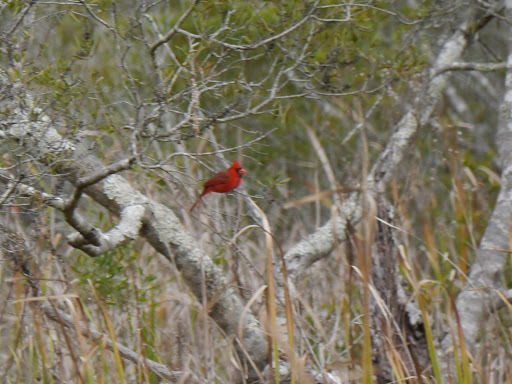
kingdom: Animalia
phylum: Chordata
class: Aves
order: Passeriformes
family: Cardinalidae
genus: Cardinalis
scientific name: Cardinalis cardinalis
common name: Northern cardinal
